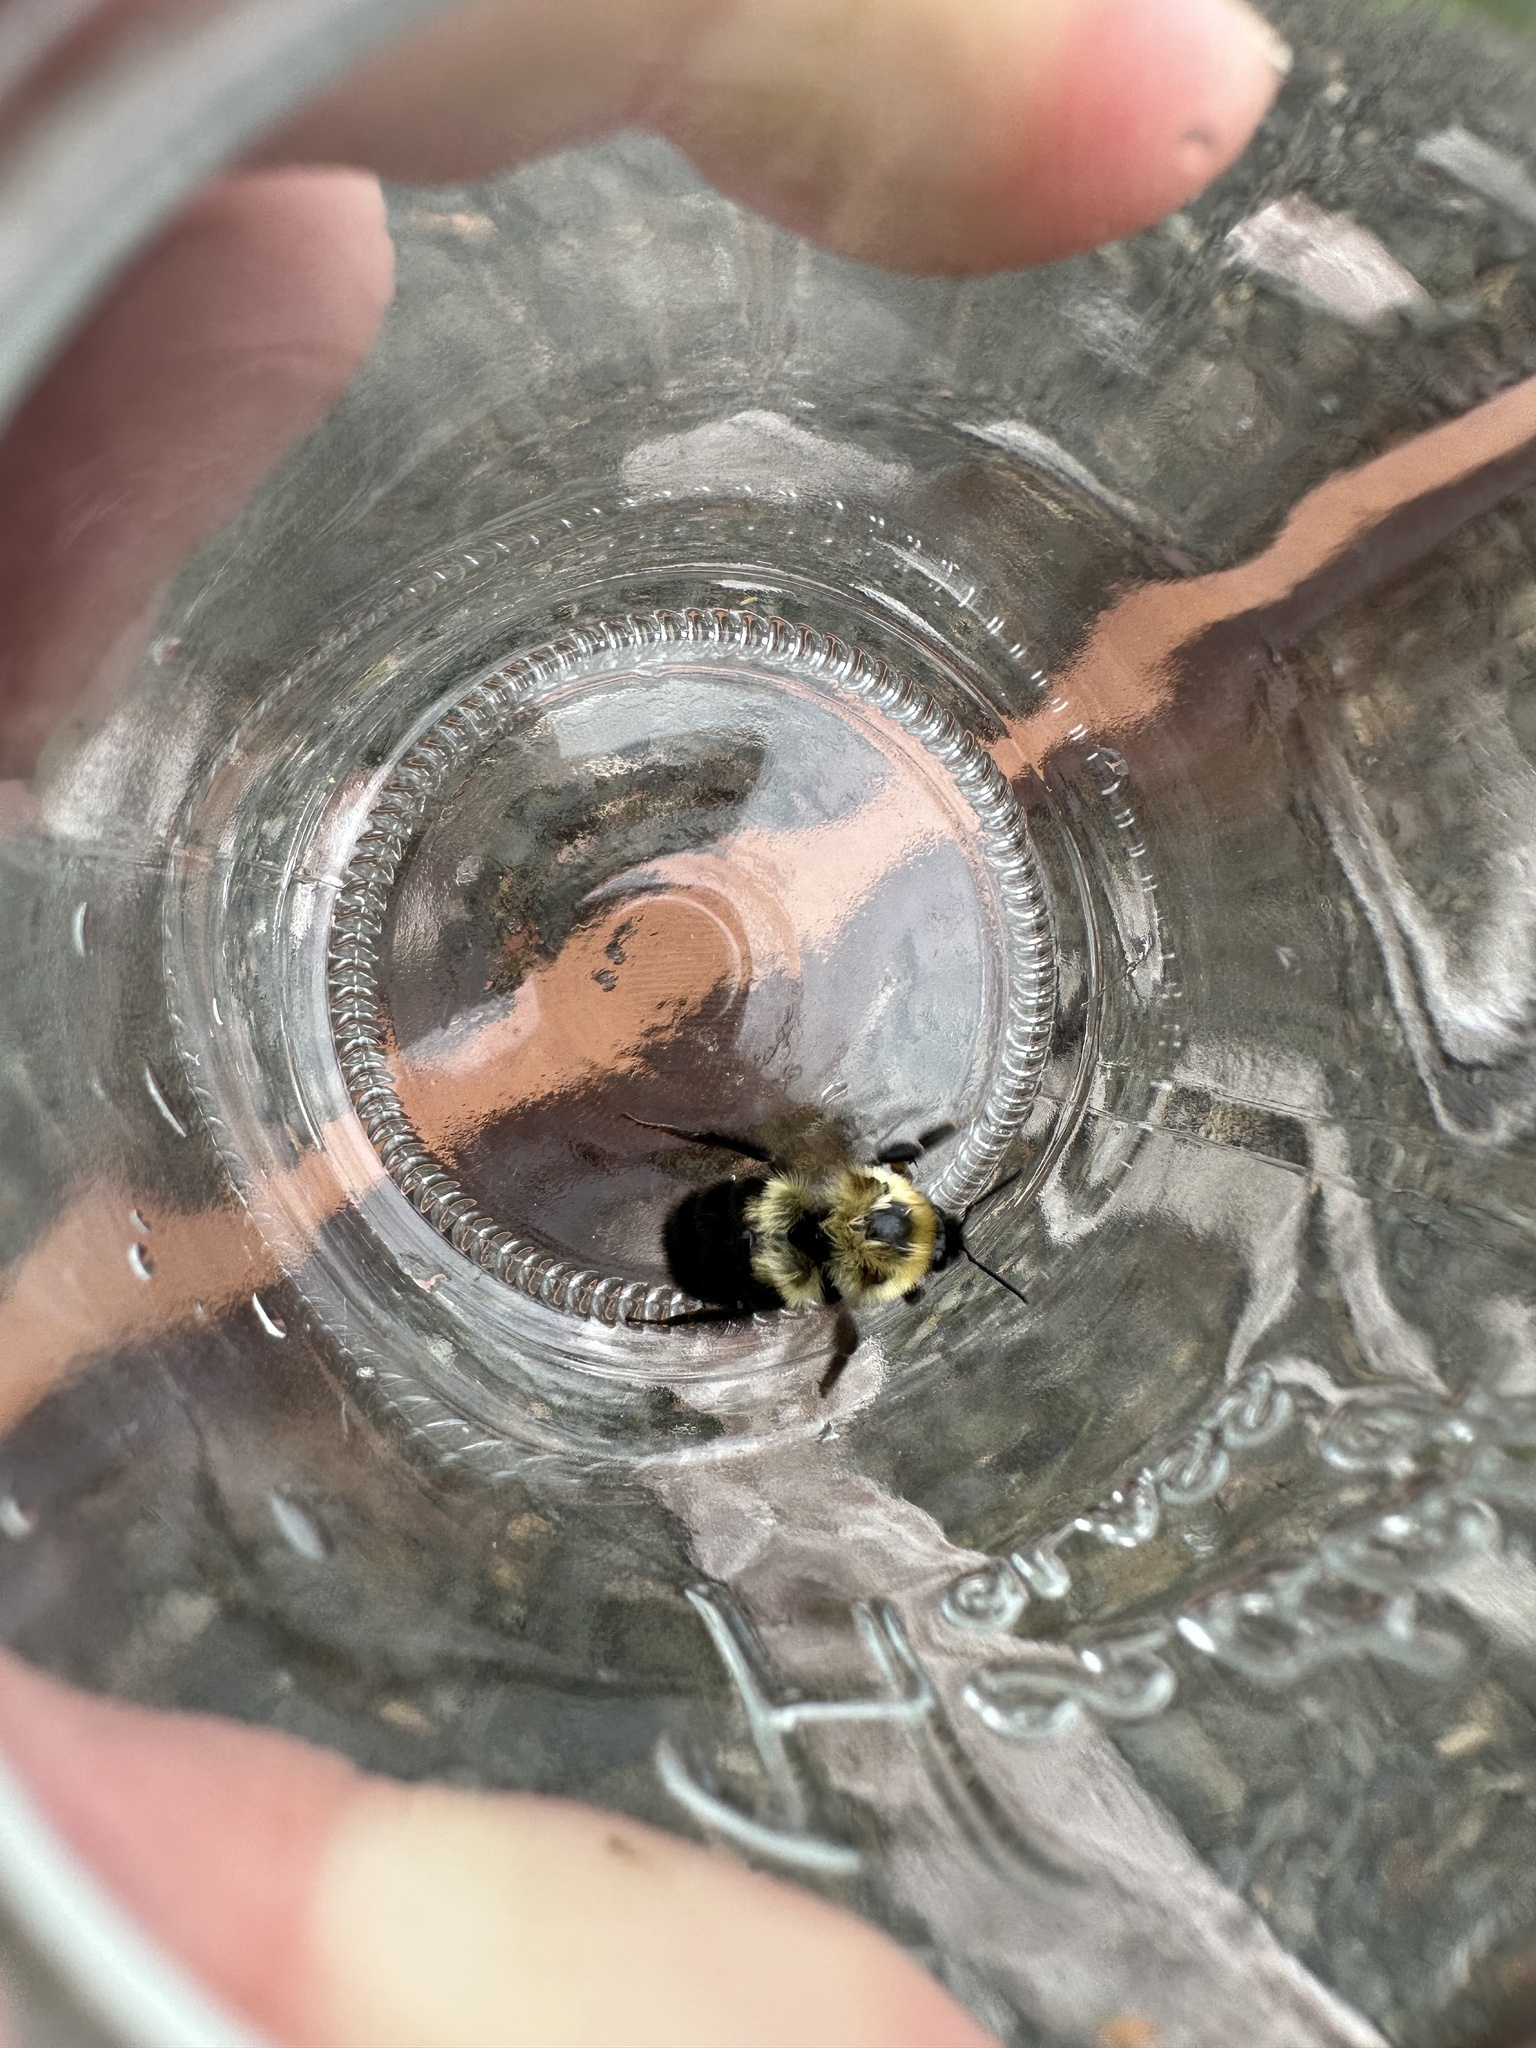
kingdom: Animalia
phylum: Arthropoda
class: Insecta
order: Hymenoptera
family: Apidae
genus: Bombus
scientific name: Bombus bimaculatus
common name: Two-spotted bumble bee
